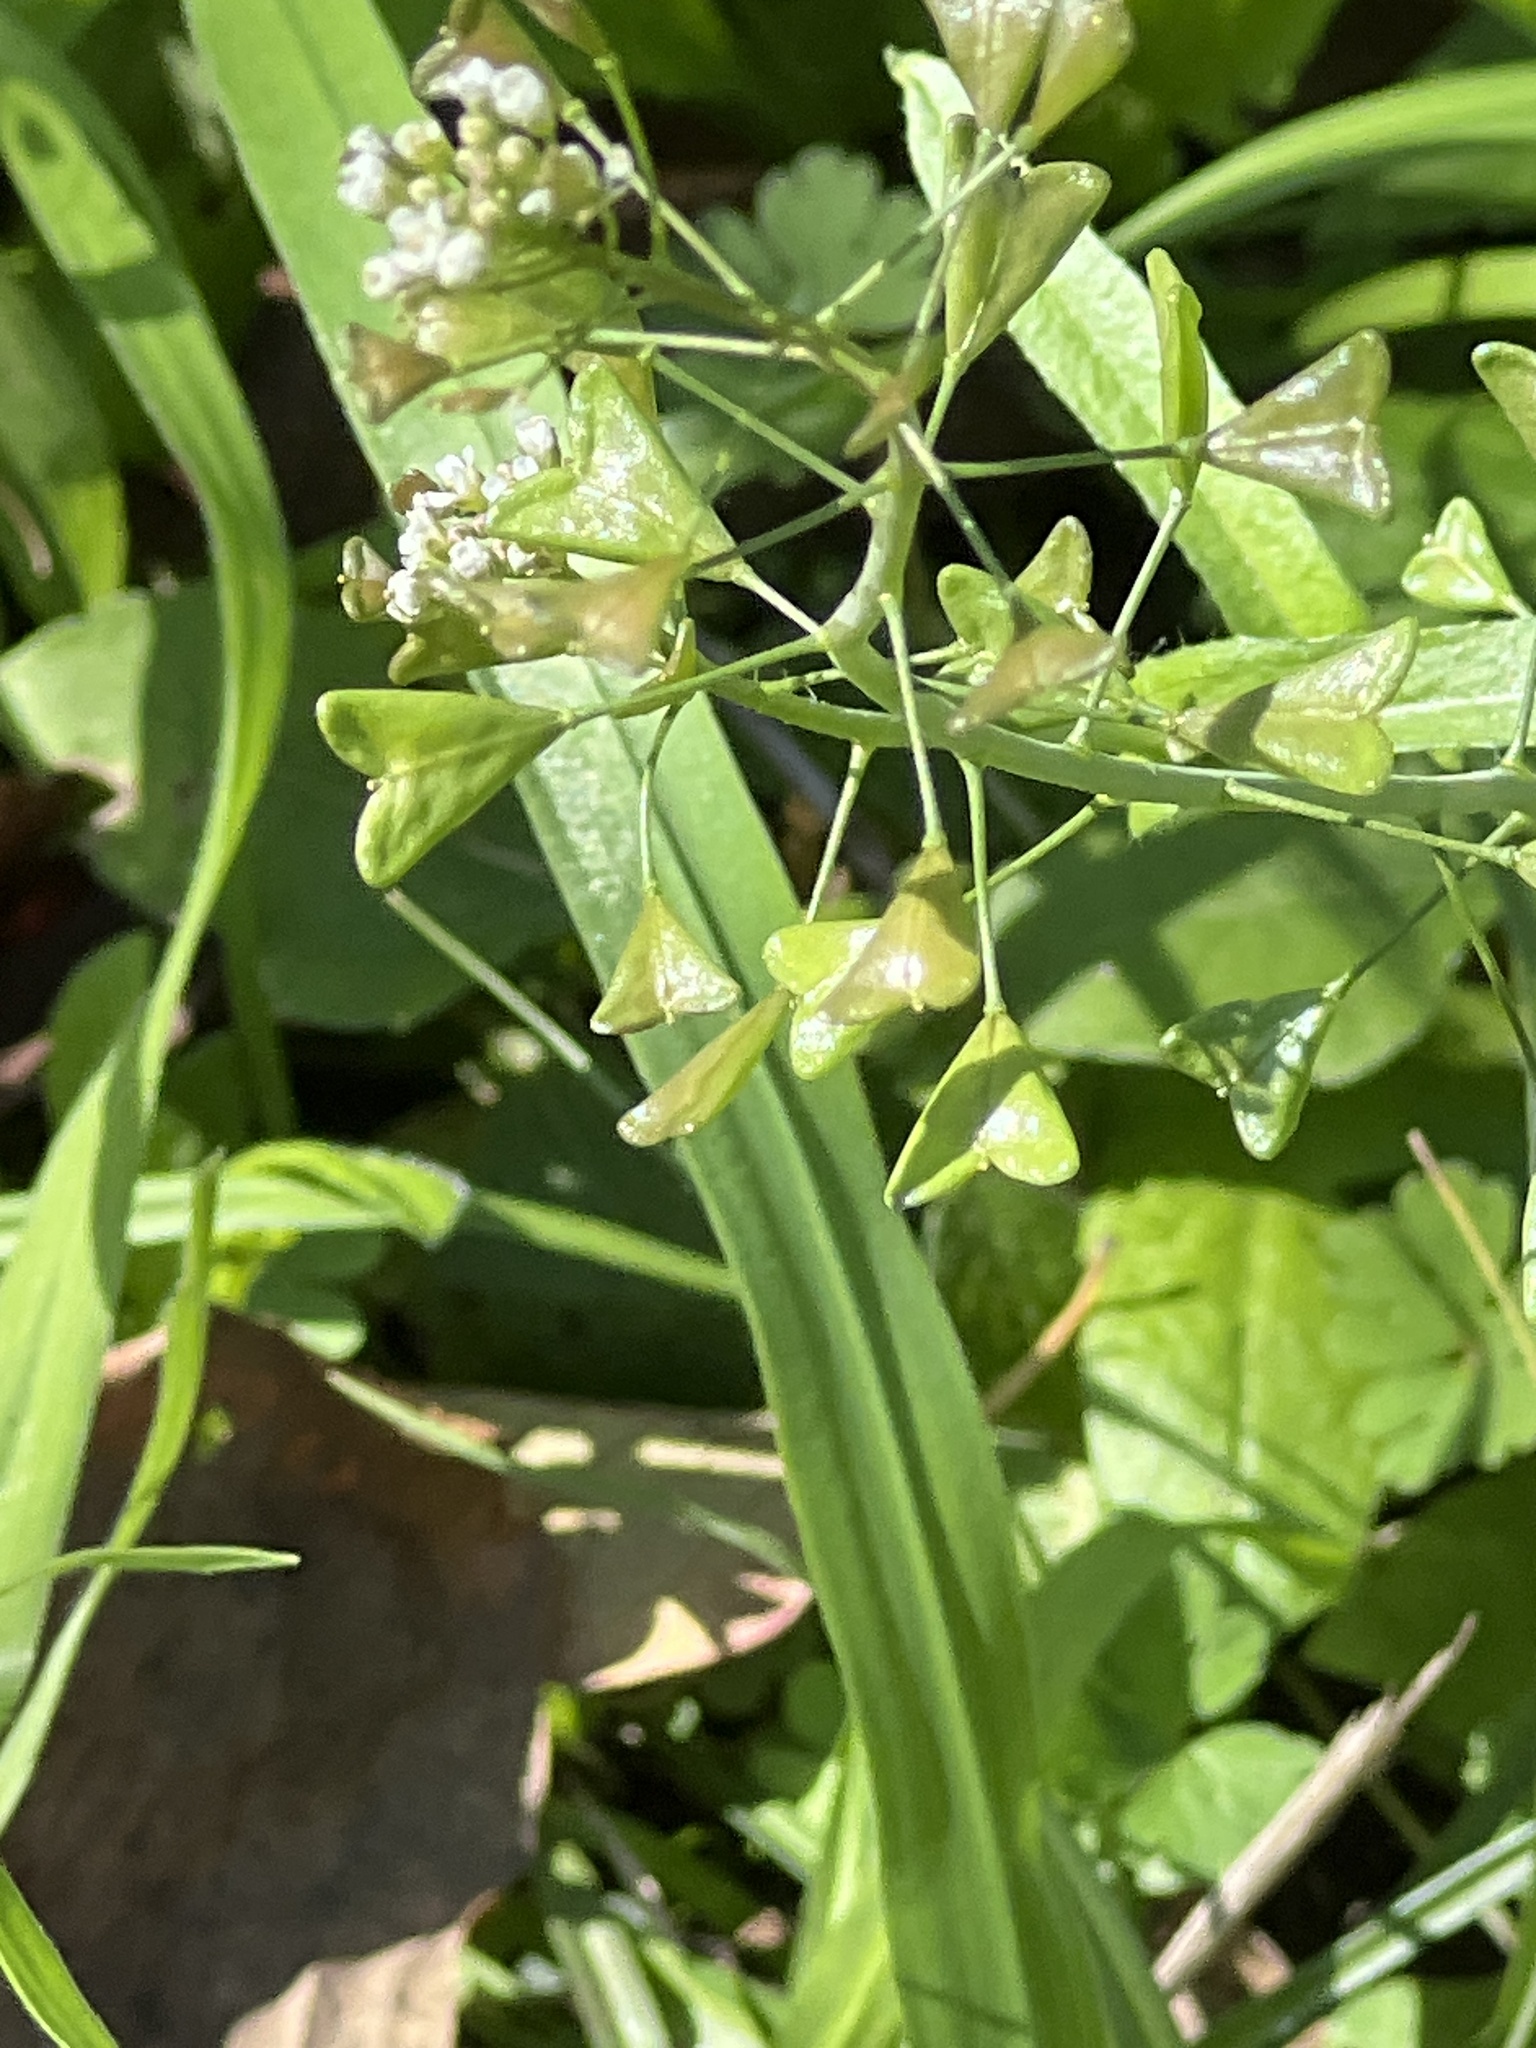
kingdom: Plantae
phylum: Tracheophyta
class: Magnoliopsida
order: Brassicales
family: Brassicaceae
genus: Capsella
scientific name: Capsella bursa-pastoris
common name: Shepherd's purse
